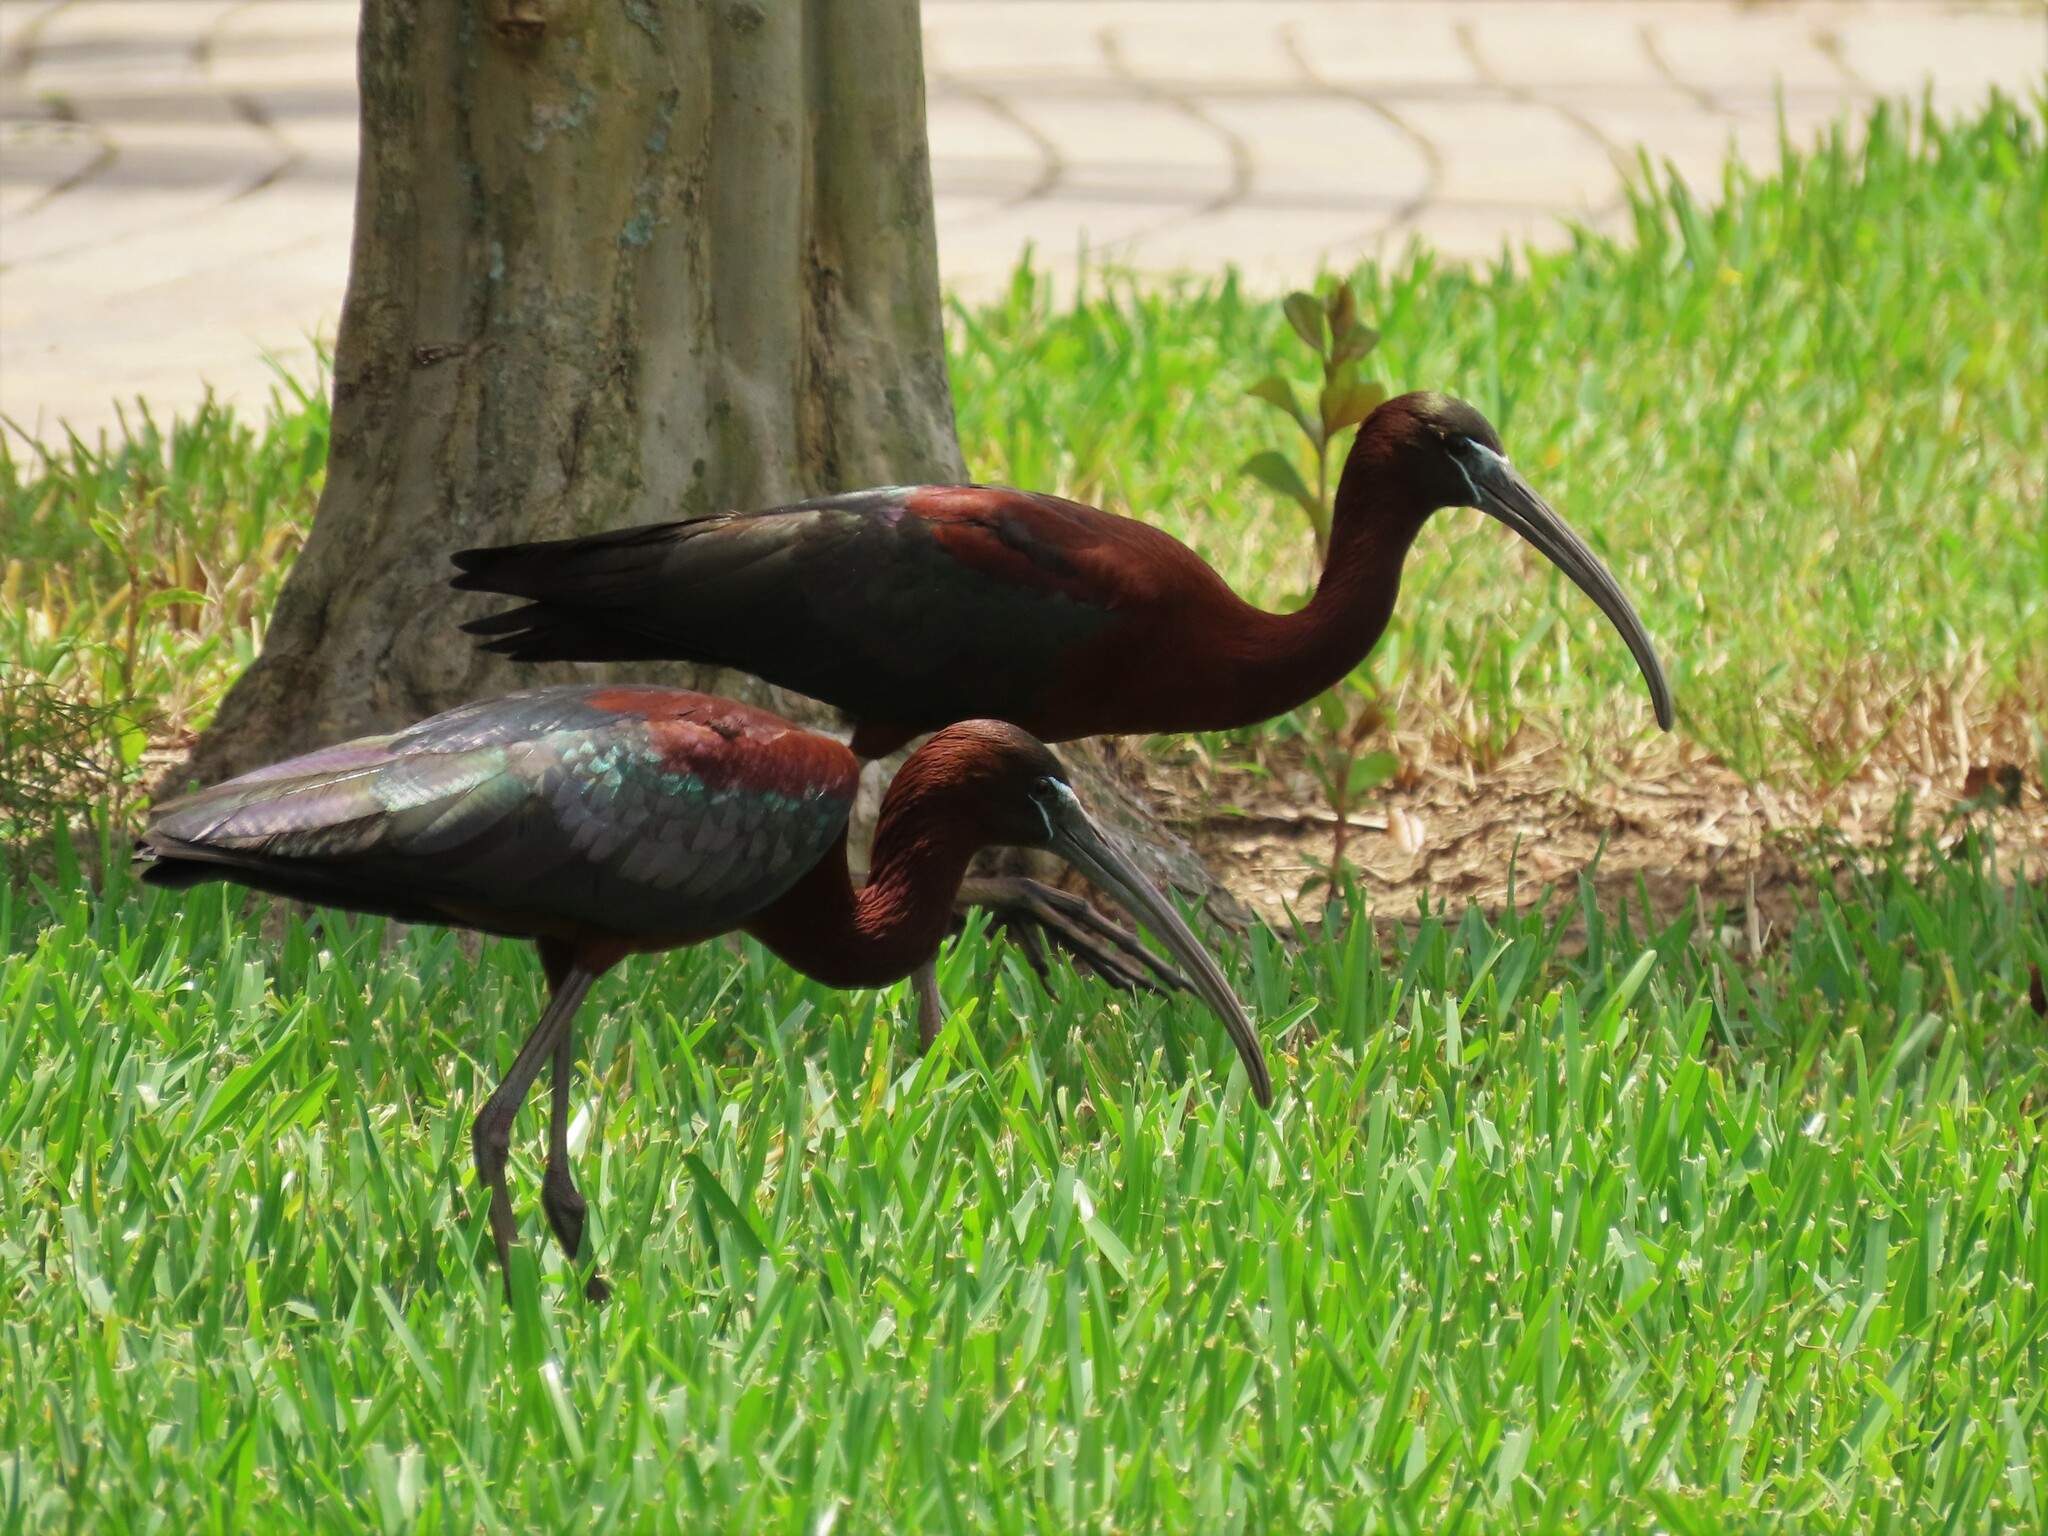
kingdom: Animalia
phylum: Chordata
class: Aves
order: Pelecaniformes
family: Threskiornithidae
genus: Plegadis
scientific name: Plegadis falcinellus
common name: Glossy ibis
